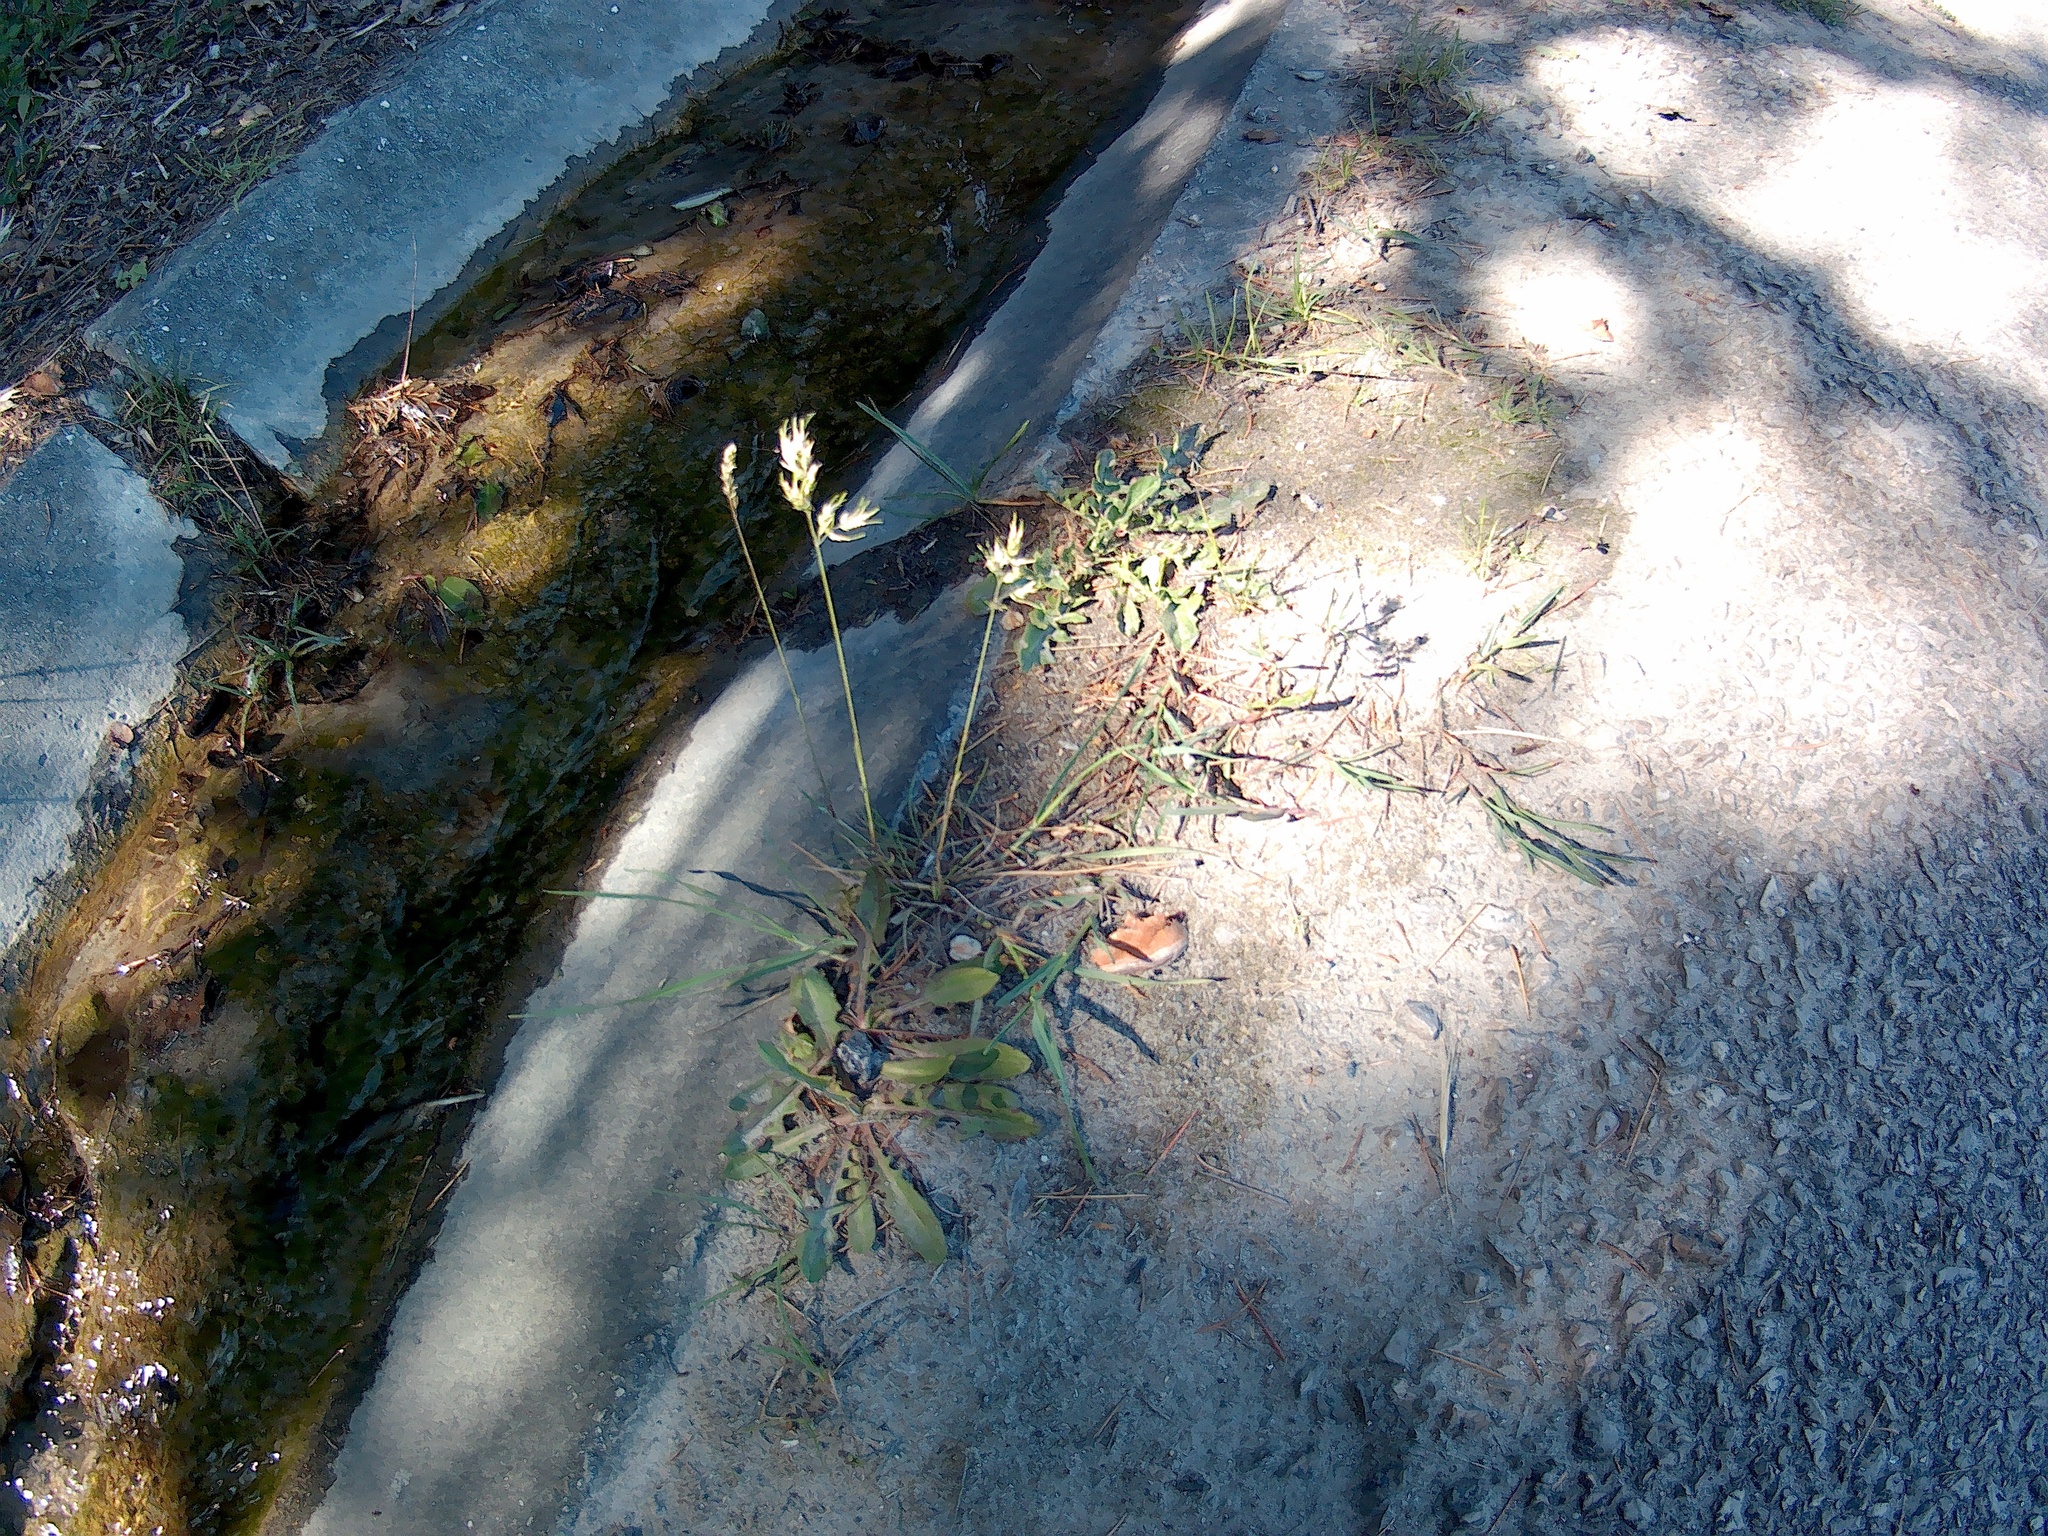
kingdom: Plantae
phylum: Tracheophyta
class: Liliopsida
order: Poales
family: Poaceae
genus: Poa
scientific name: Poa bulbosa
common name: Bulbous bluegrass
